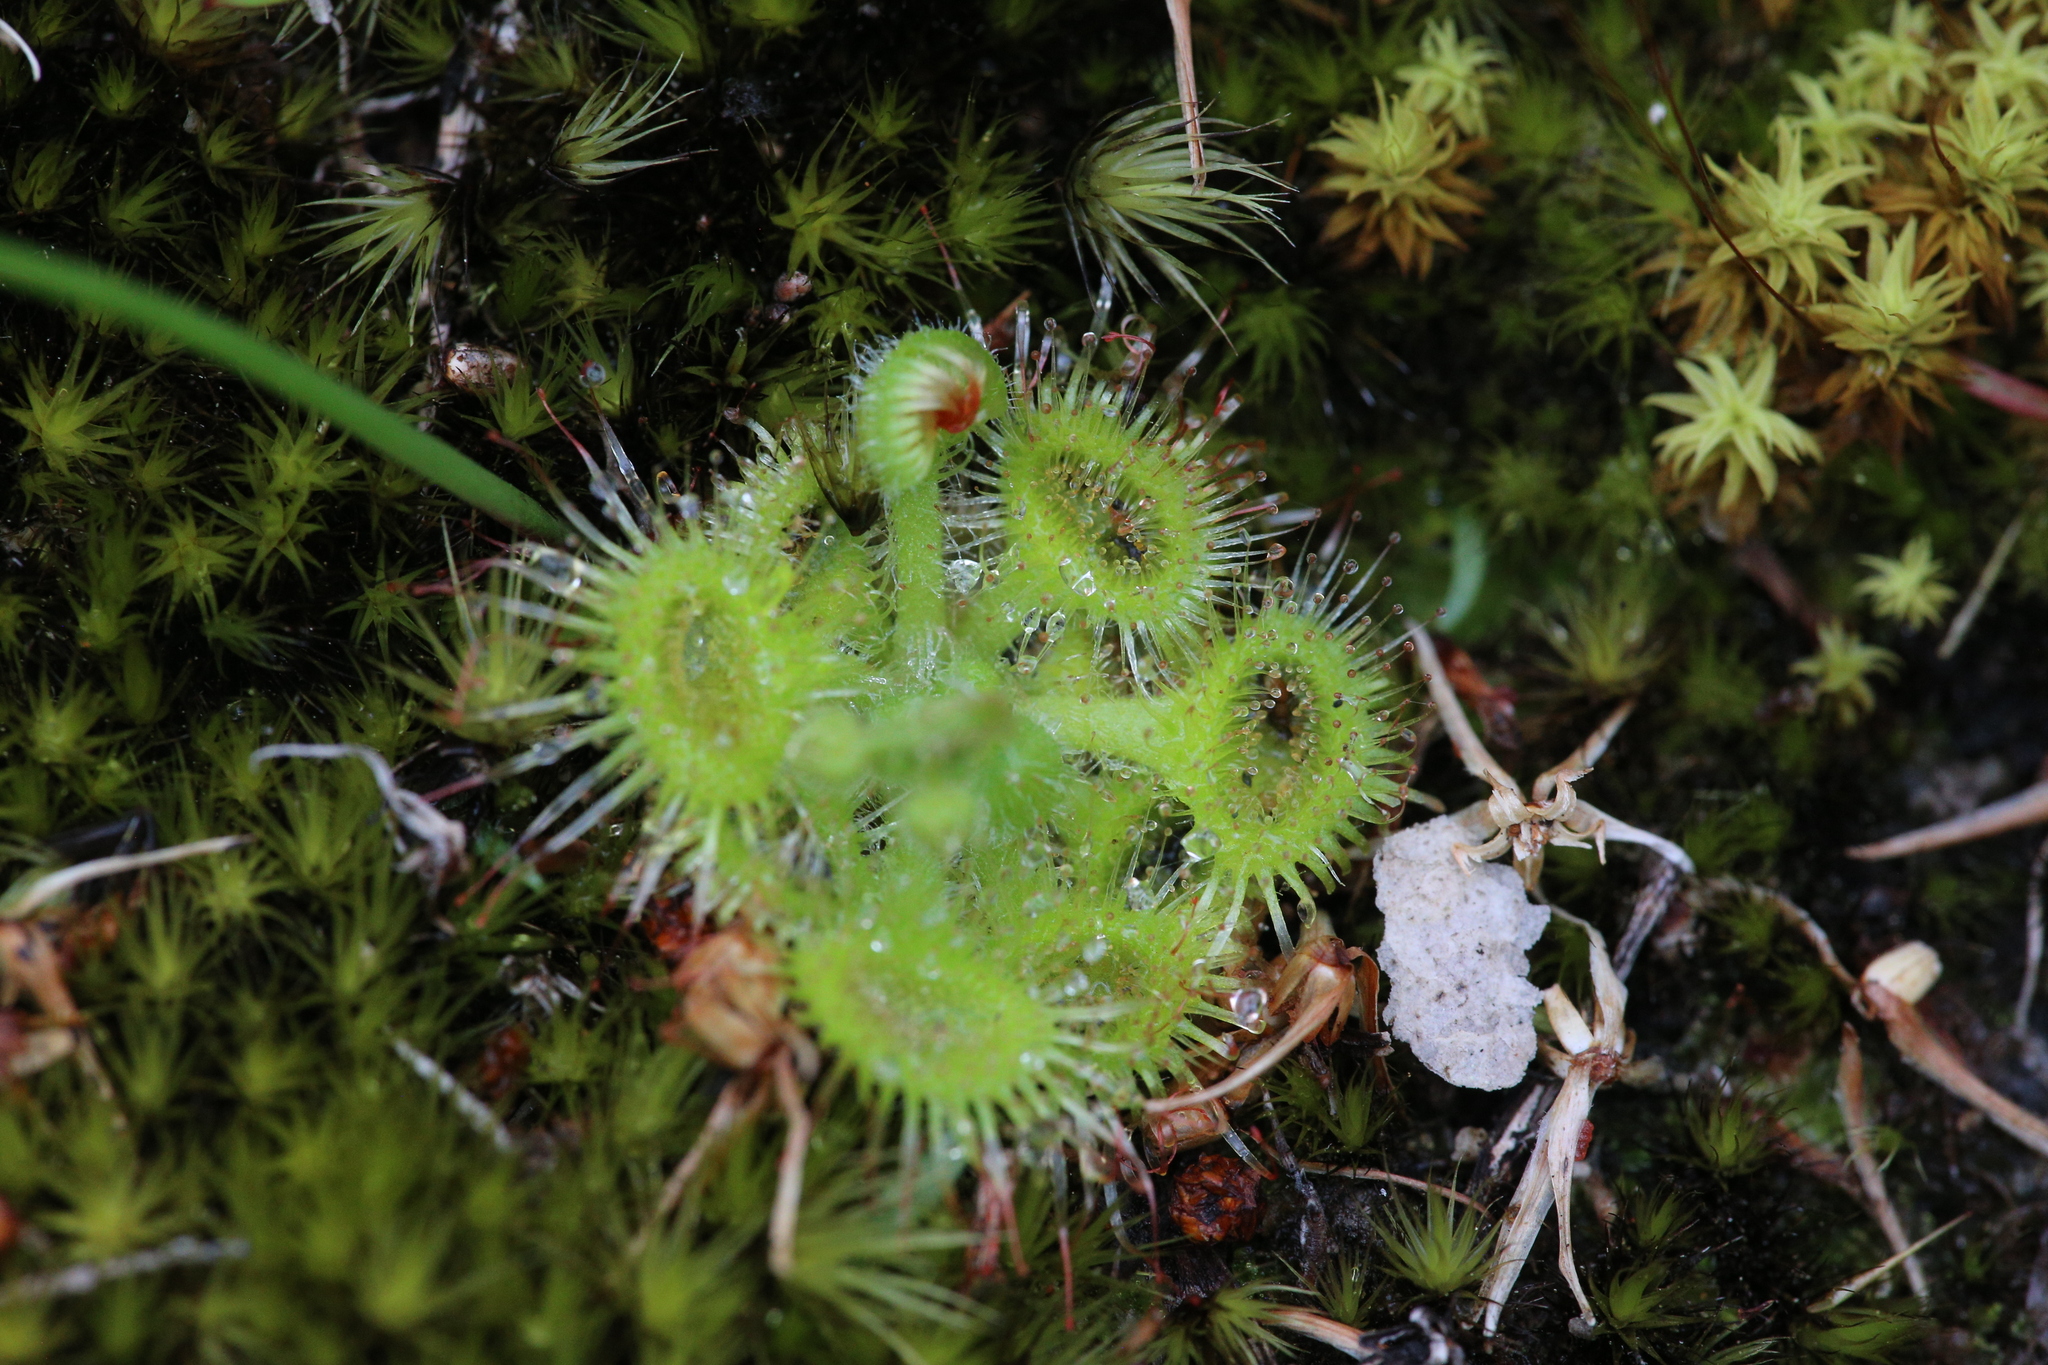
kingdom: Plantae
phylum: Tracheophyta
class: Magnoliopsida
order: Caryophyllales
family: Droseraceae
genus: Drosera
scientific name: Drosera glanduligera
